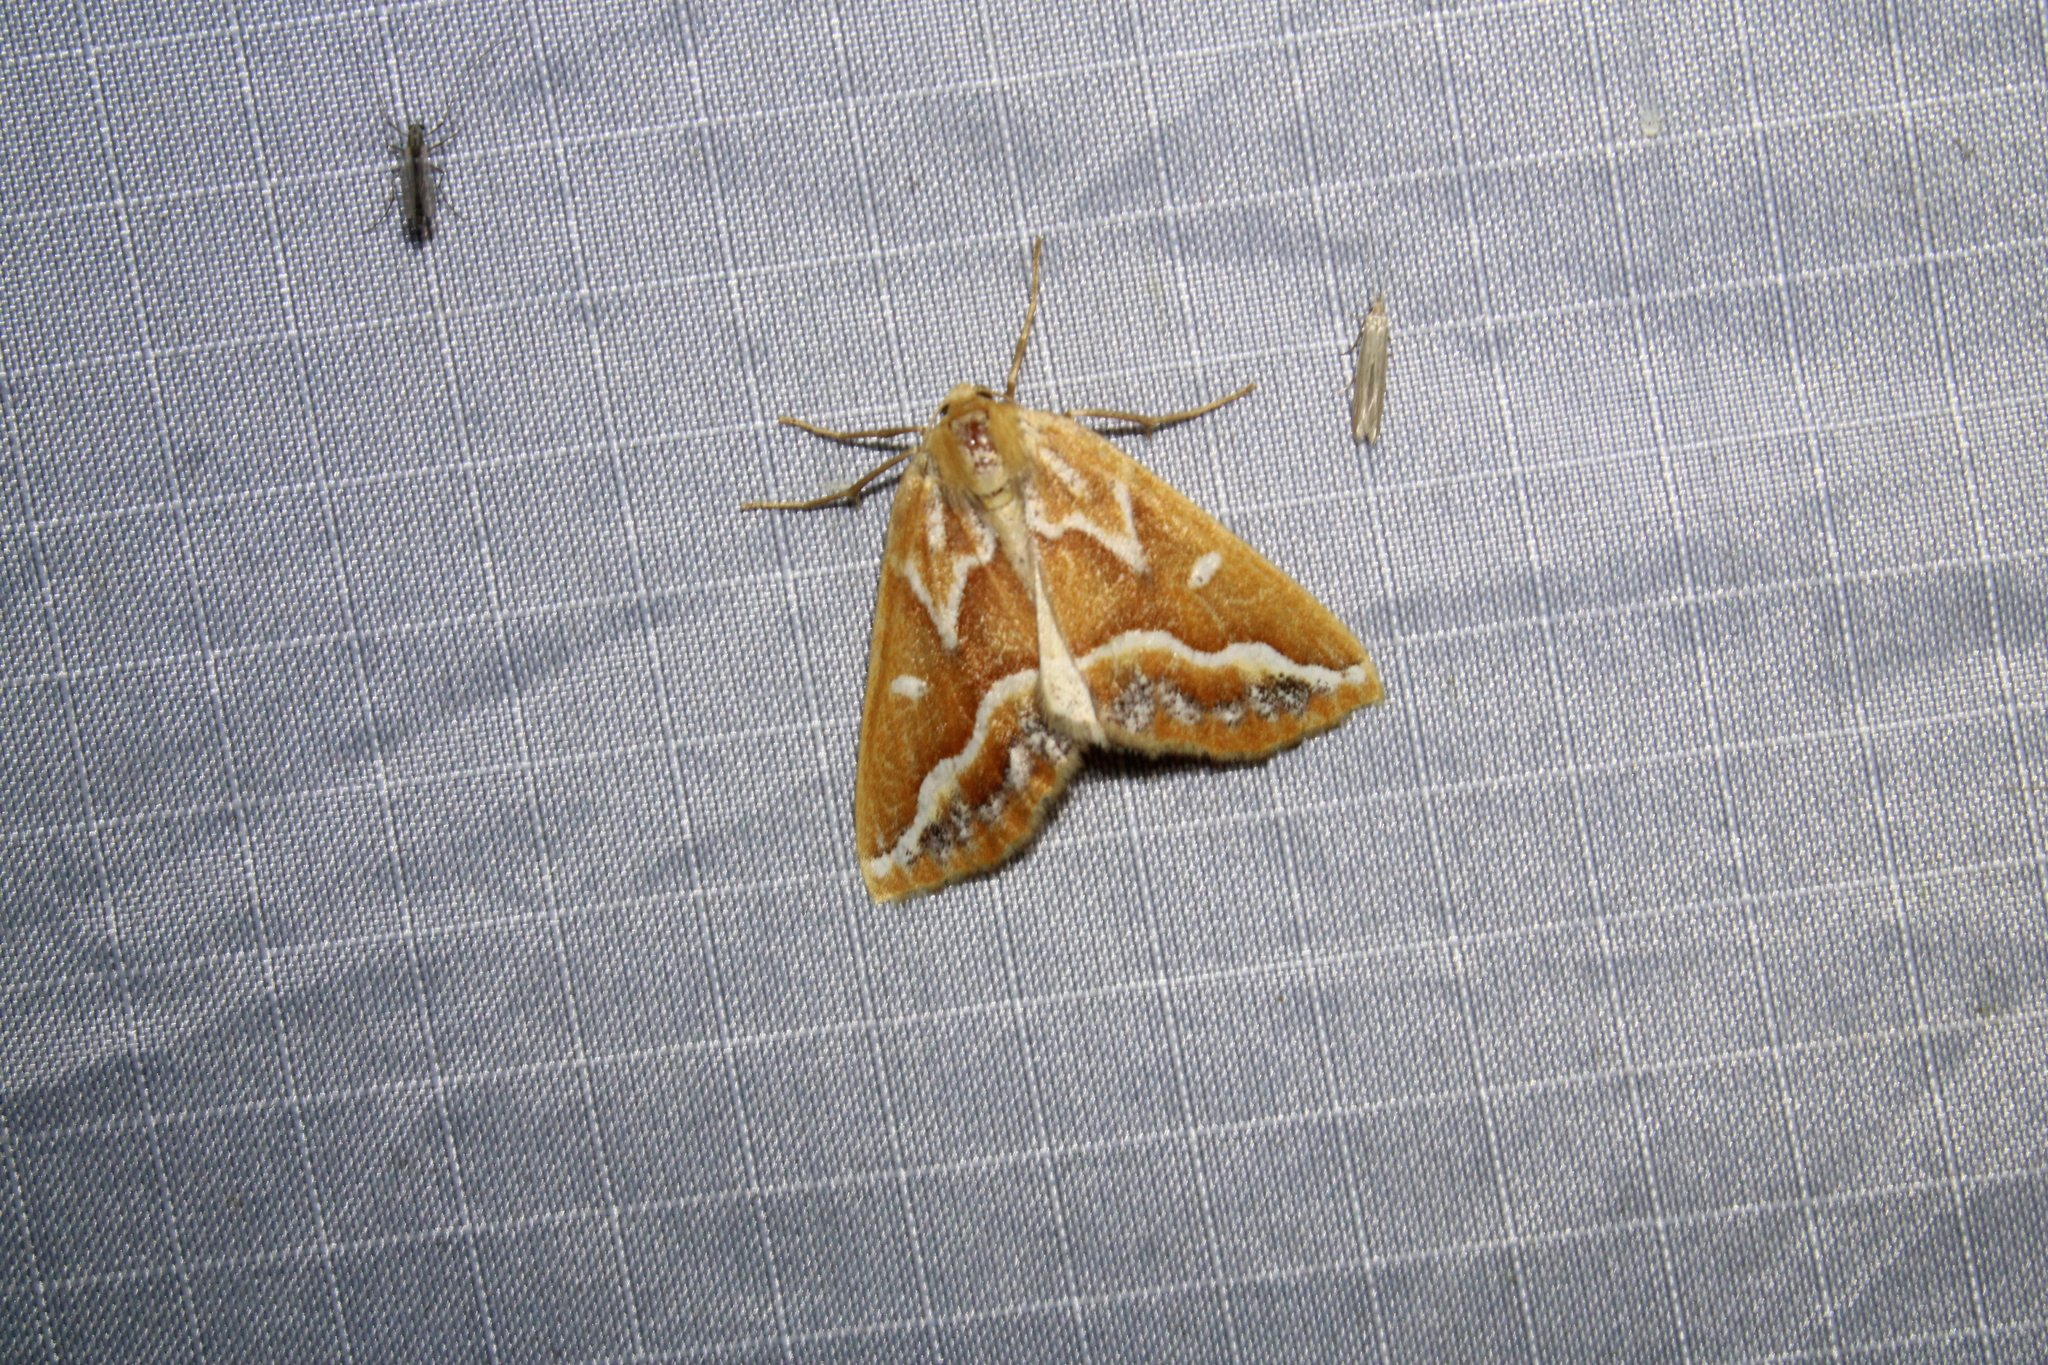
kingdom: Animalia
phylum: Arthropoda
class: Insecta
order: Lepidoptera
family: Geometridae
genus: Caripeta
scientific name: Caripeta angustiorata
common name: Brown pine looper
